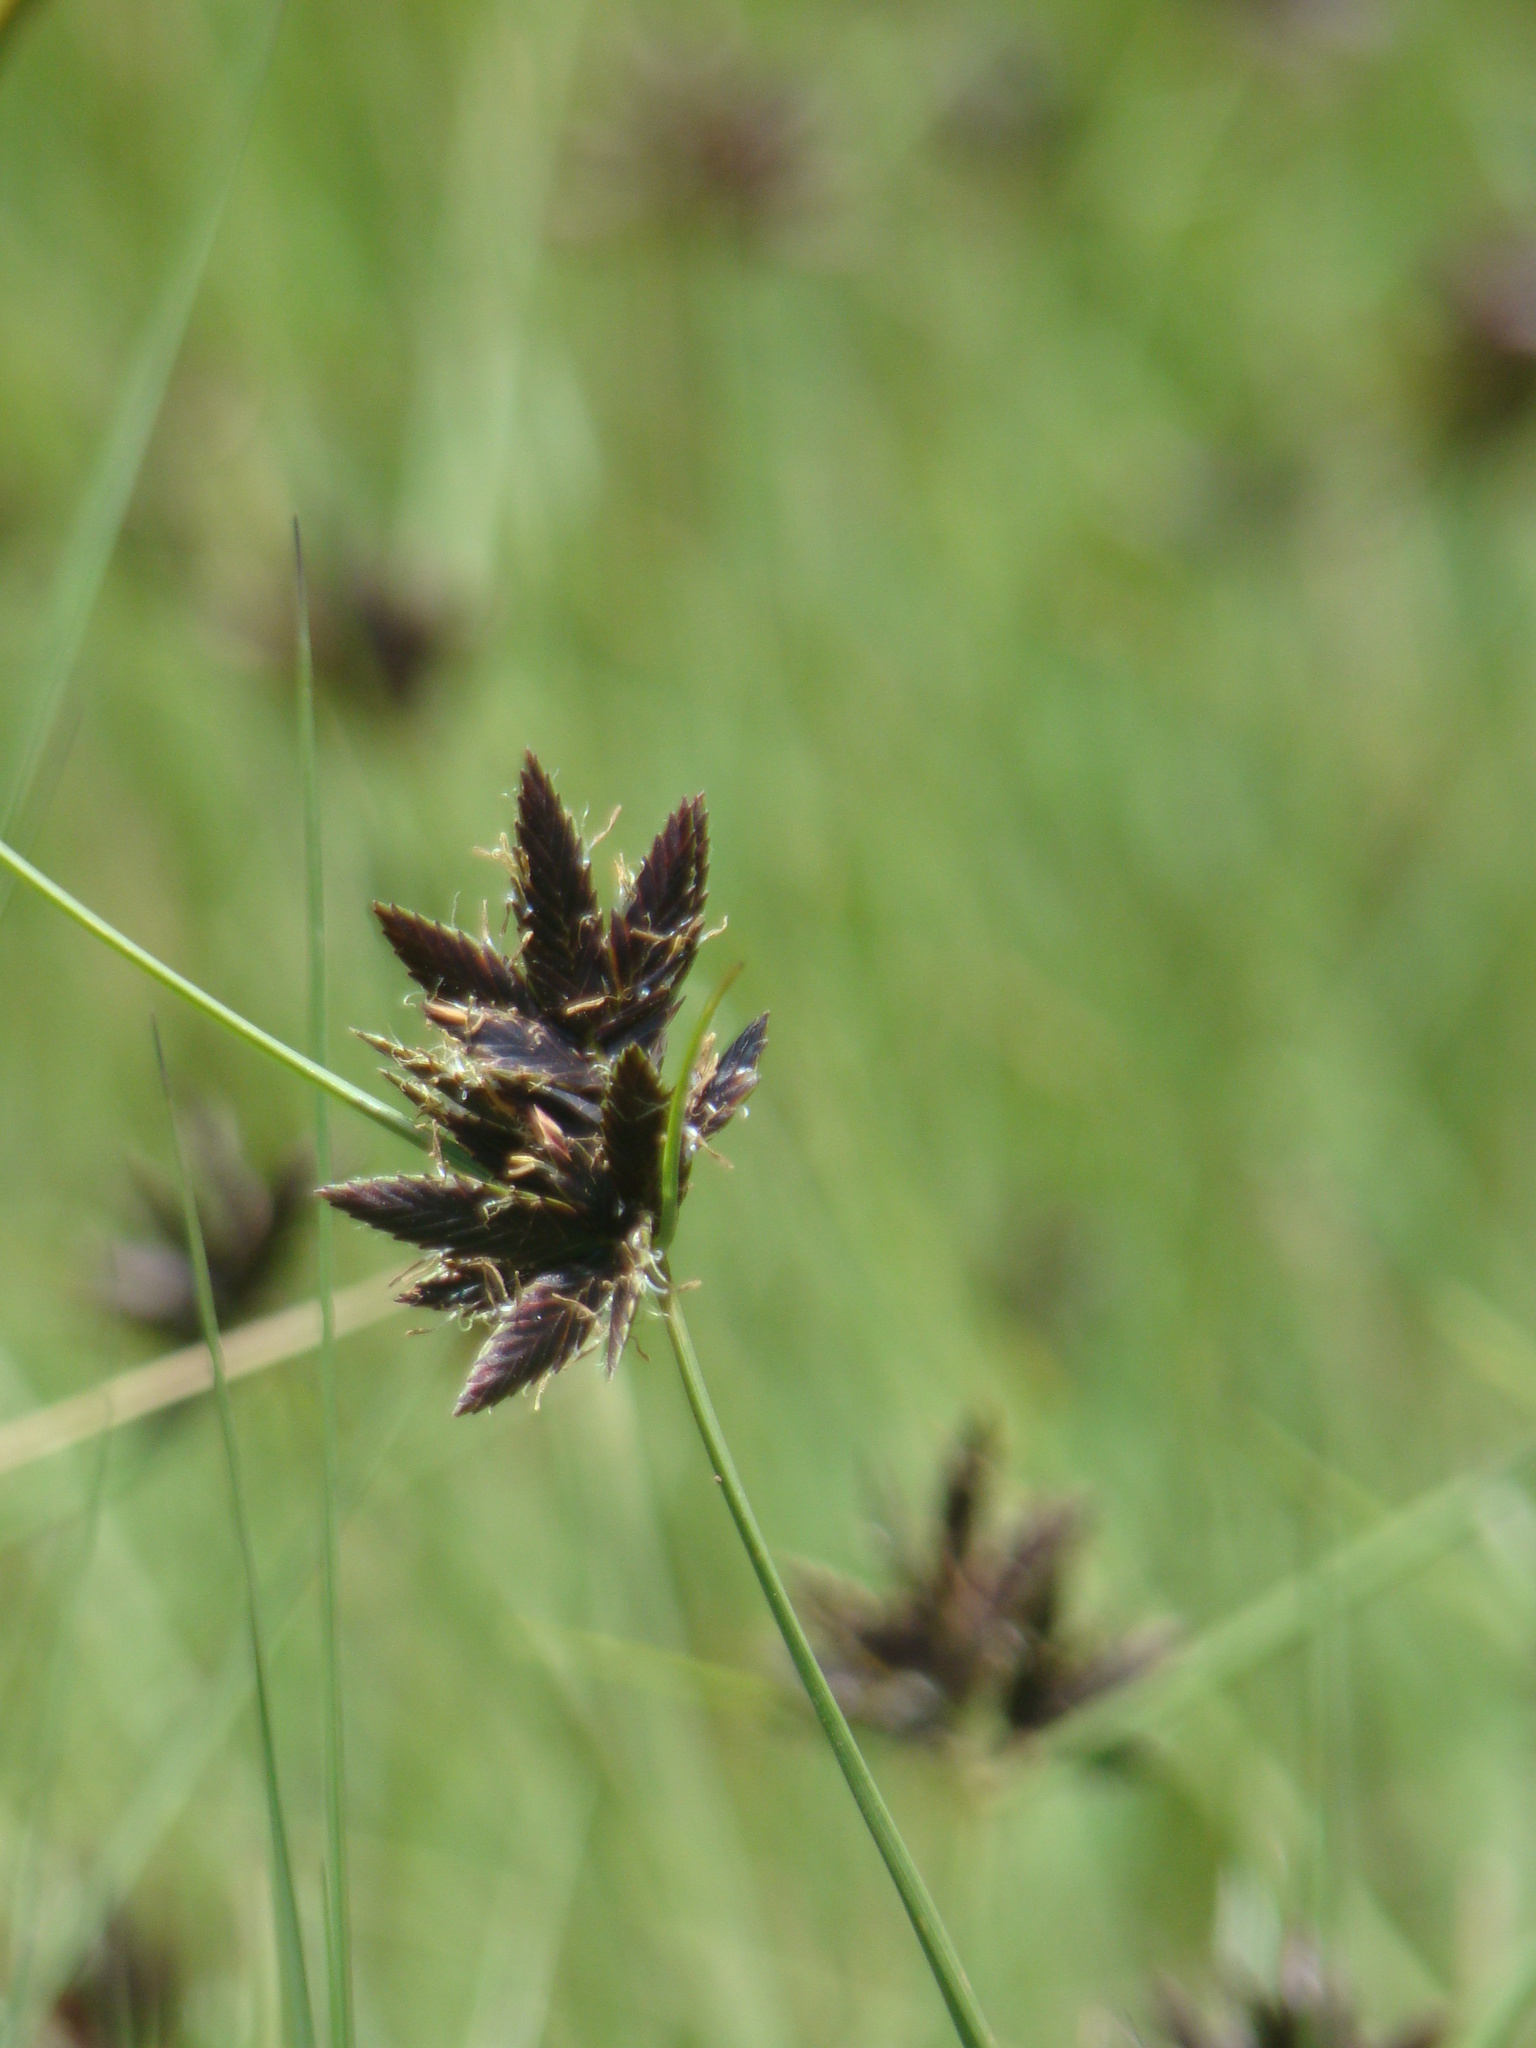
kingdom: Plantae
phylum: Tracheophyta
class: Liliopsida
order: Poales
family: Cyperaceae
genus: Cyperus
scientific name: Cyperus nigricans
